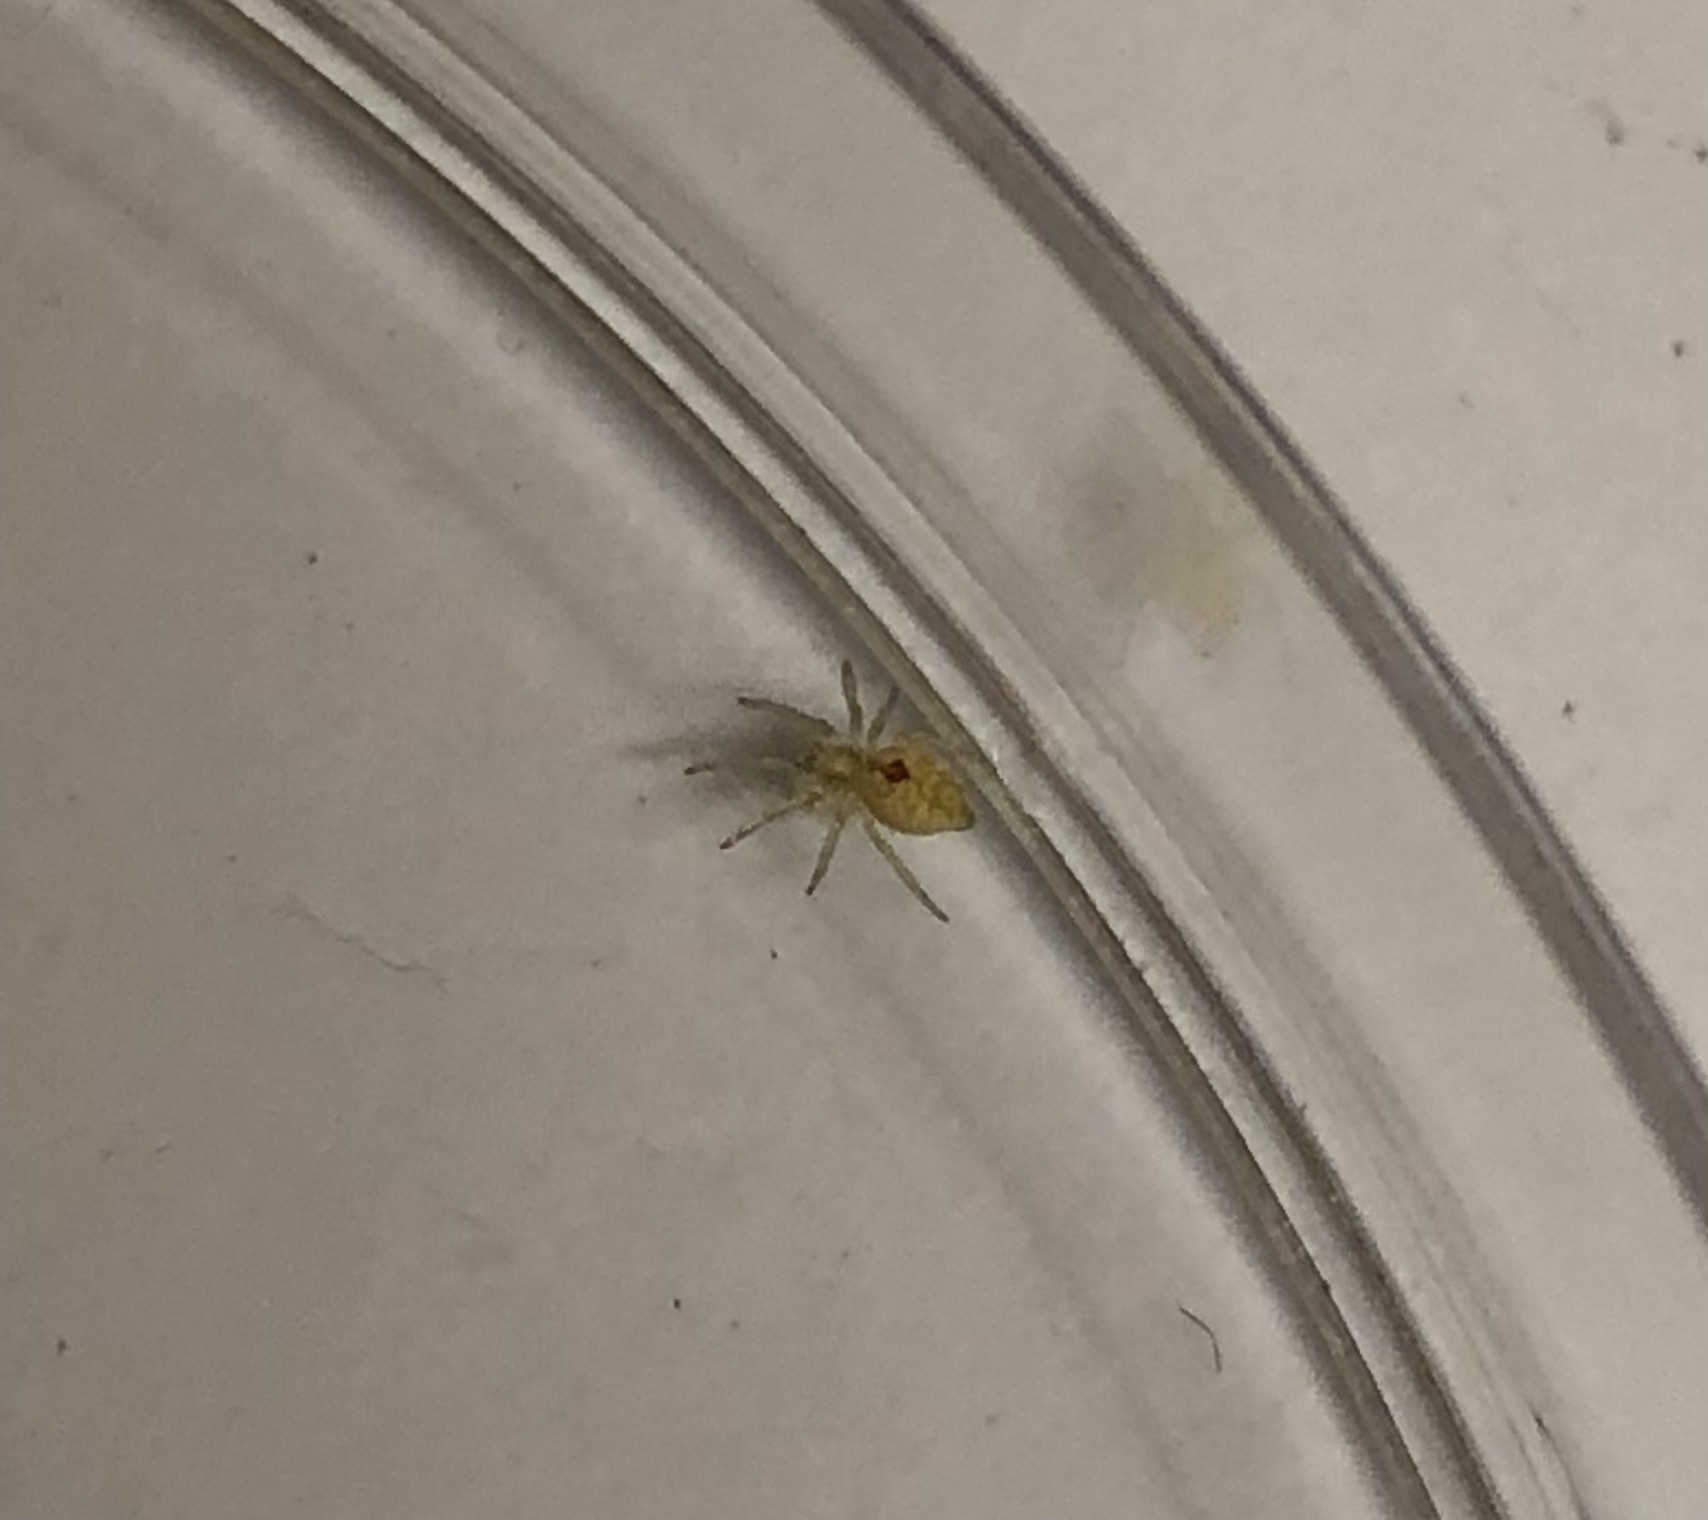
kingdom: Animalia
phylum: Arthropoda
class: Arachnida
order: Araneae
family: Dictynidae
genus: Nigma
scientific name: Nigma puella
